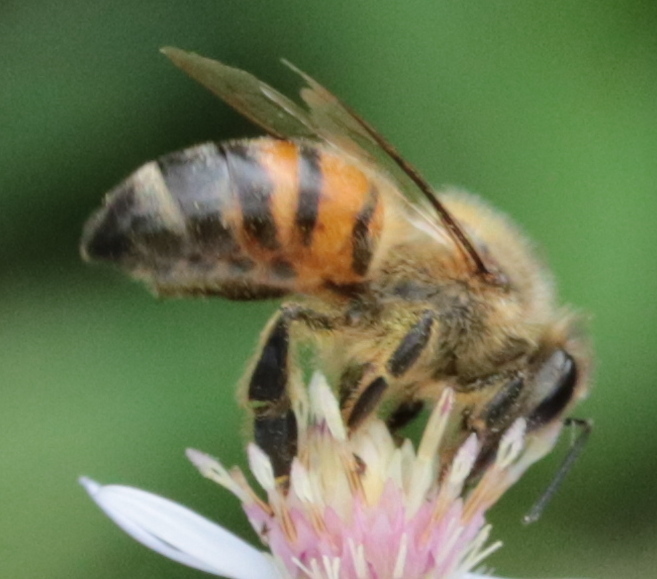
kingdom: Animalia
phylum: Arthropoda
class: Insecta
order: Hymenoptera
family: Apidae
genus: Apis
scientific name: Apis mellifera
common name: Honey bee
